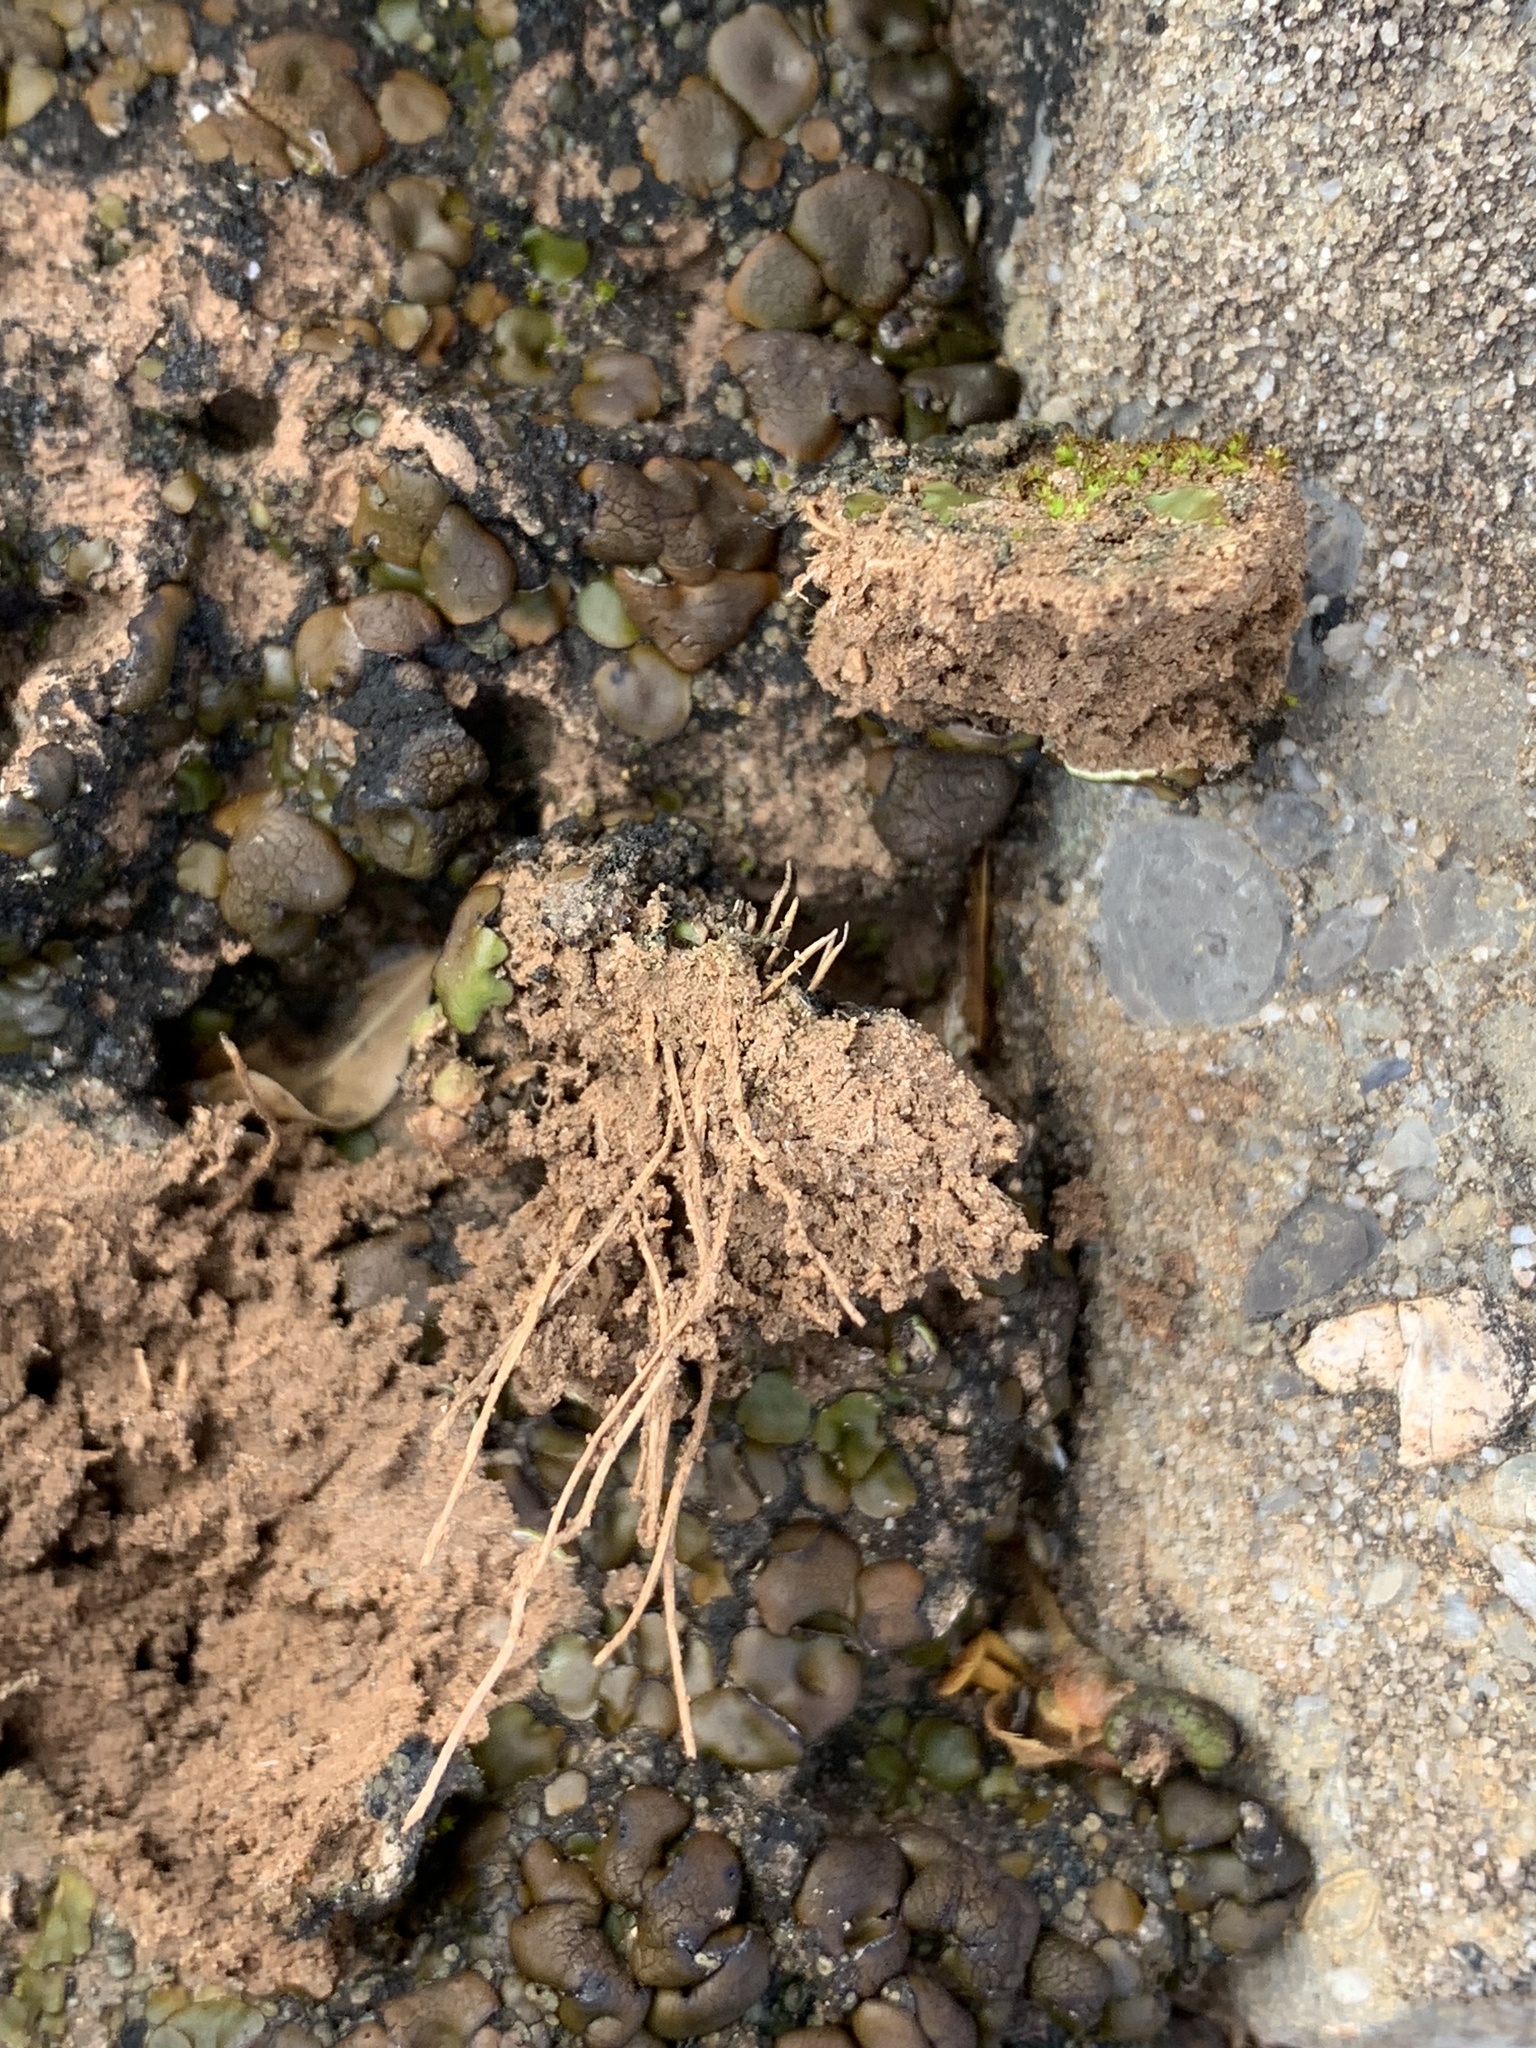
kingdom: Fungi
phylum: Ascomycota
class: Eurotiomycetes
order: Verrucariales
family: Verrucariaceae
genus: Clavascidium
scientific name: Clavascidium lacinulatum
